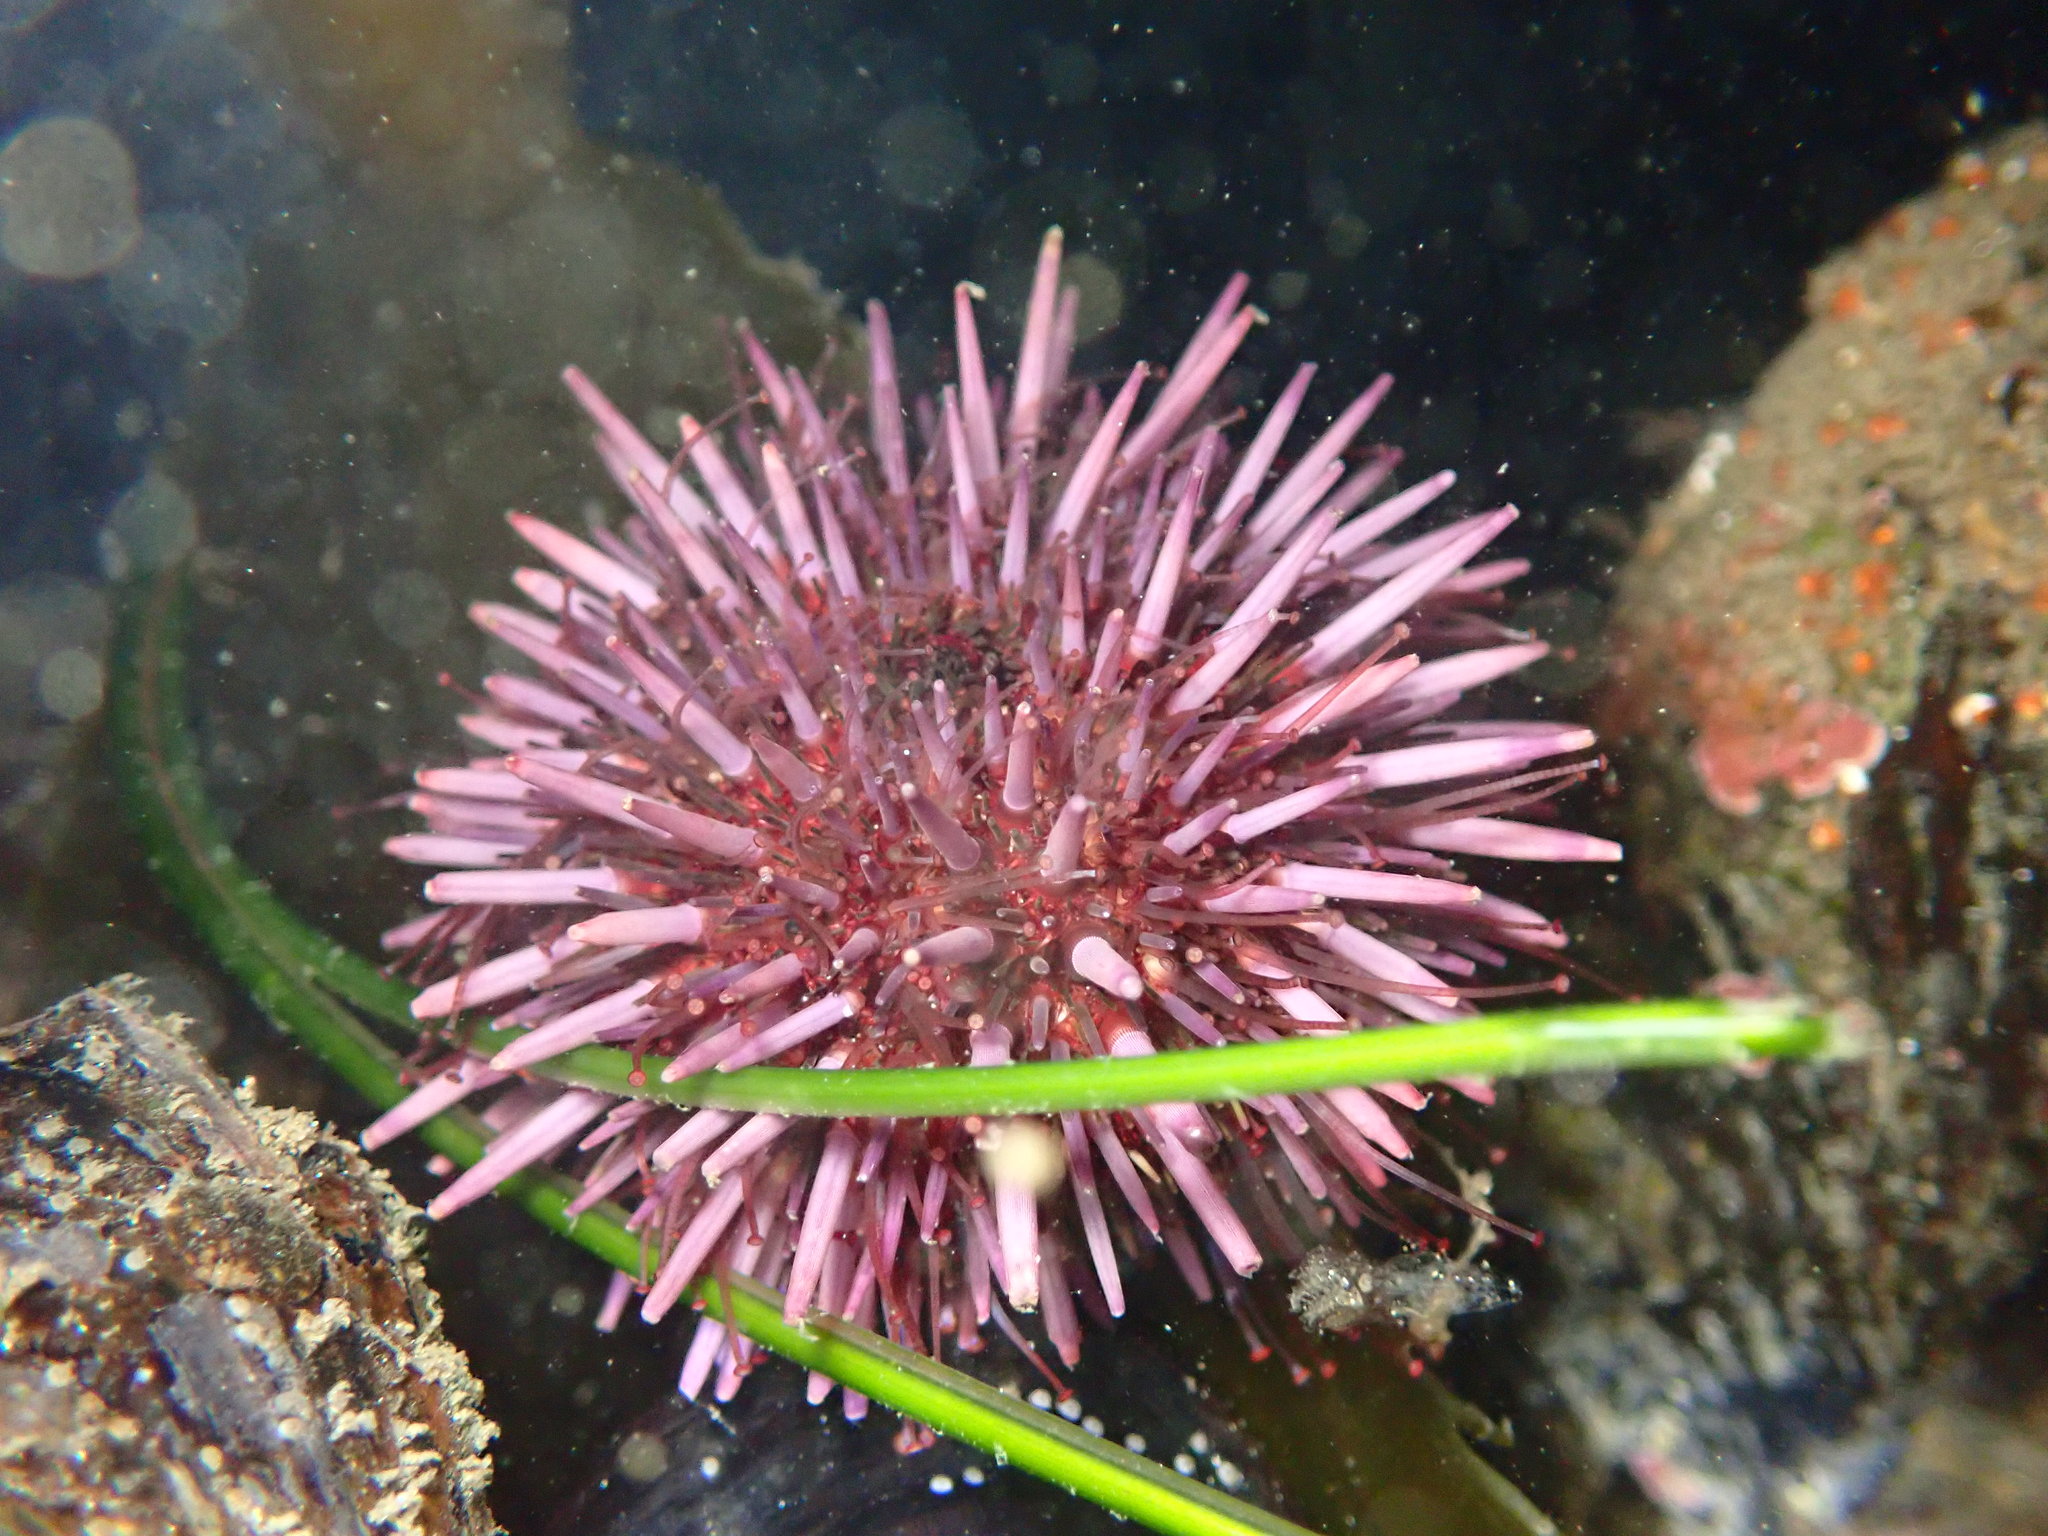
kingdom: Animalia
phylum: Echinodermata
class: Echinoidea
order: Camarodonta
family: Strongylocentrotidae
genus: Strongylocentrotus
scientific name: Strongylocentrotus purpuratus
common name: Purple sea urchin
